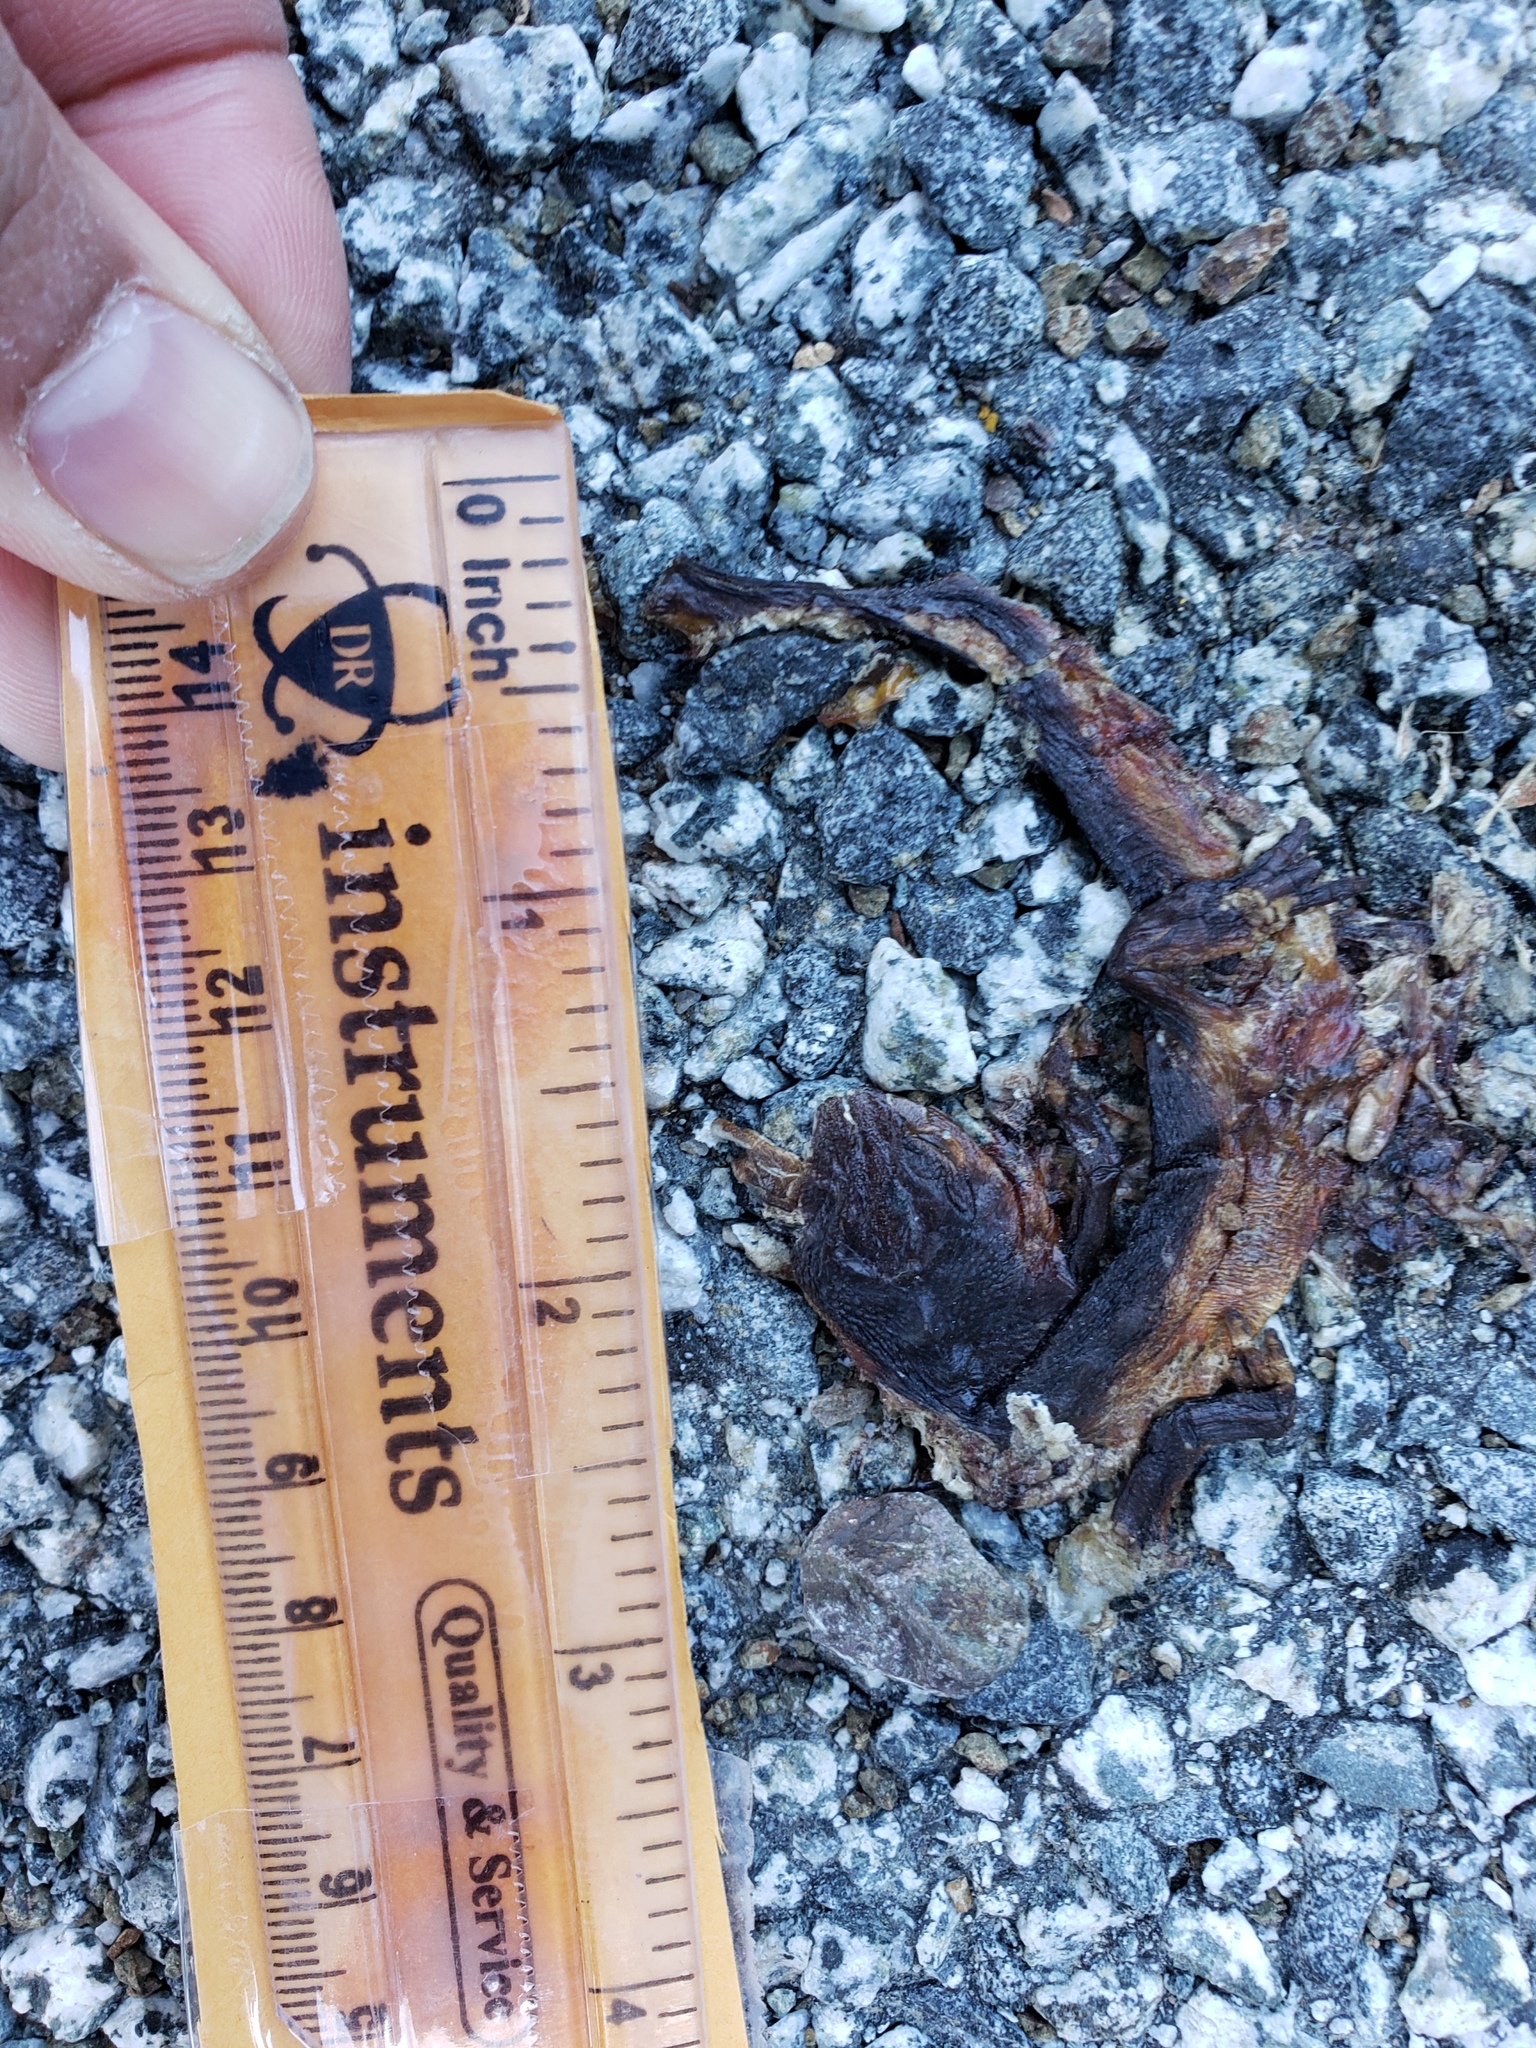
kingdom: Animalia
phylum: Chordata
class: Amphibia
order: Caudata
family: Salamandridae
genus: Taricha
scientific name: Taricha
